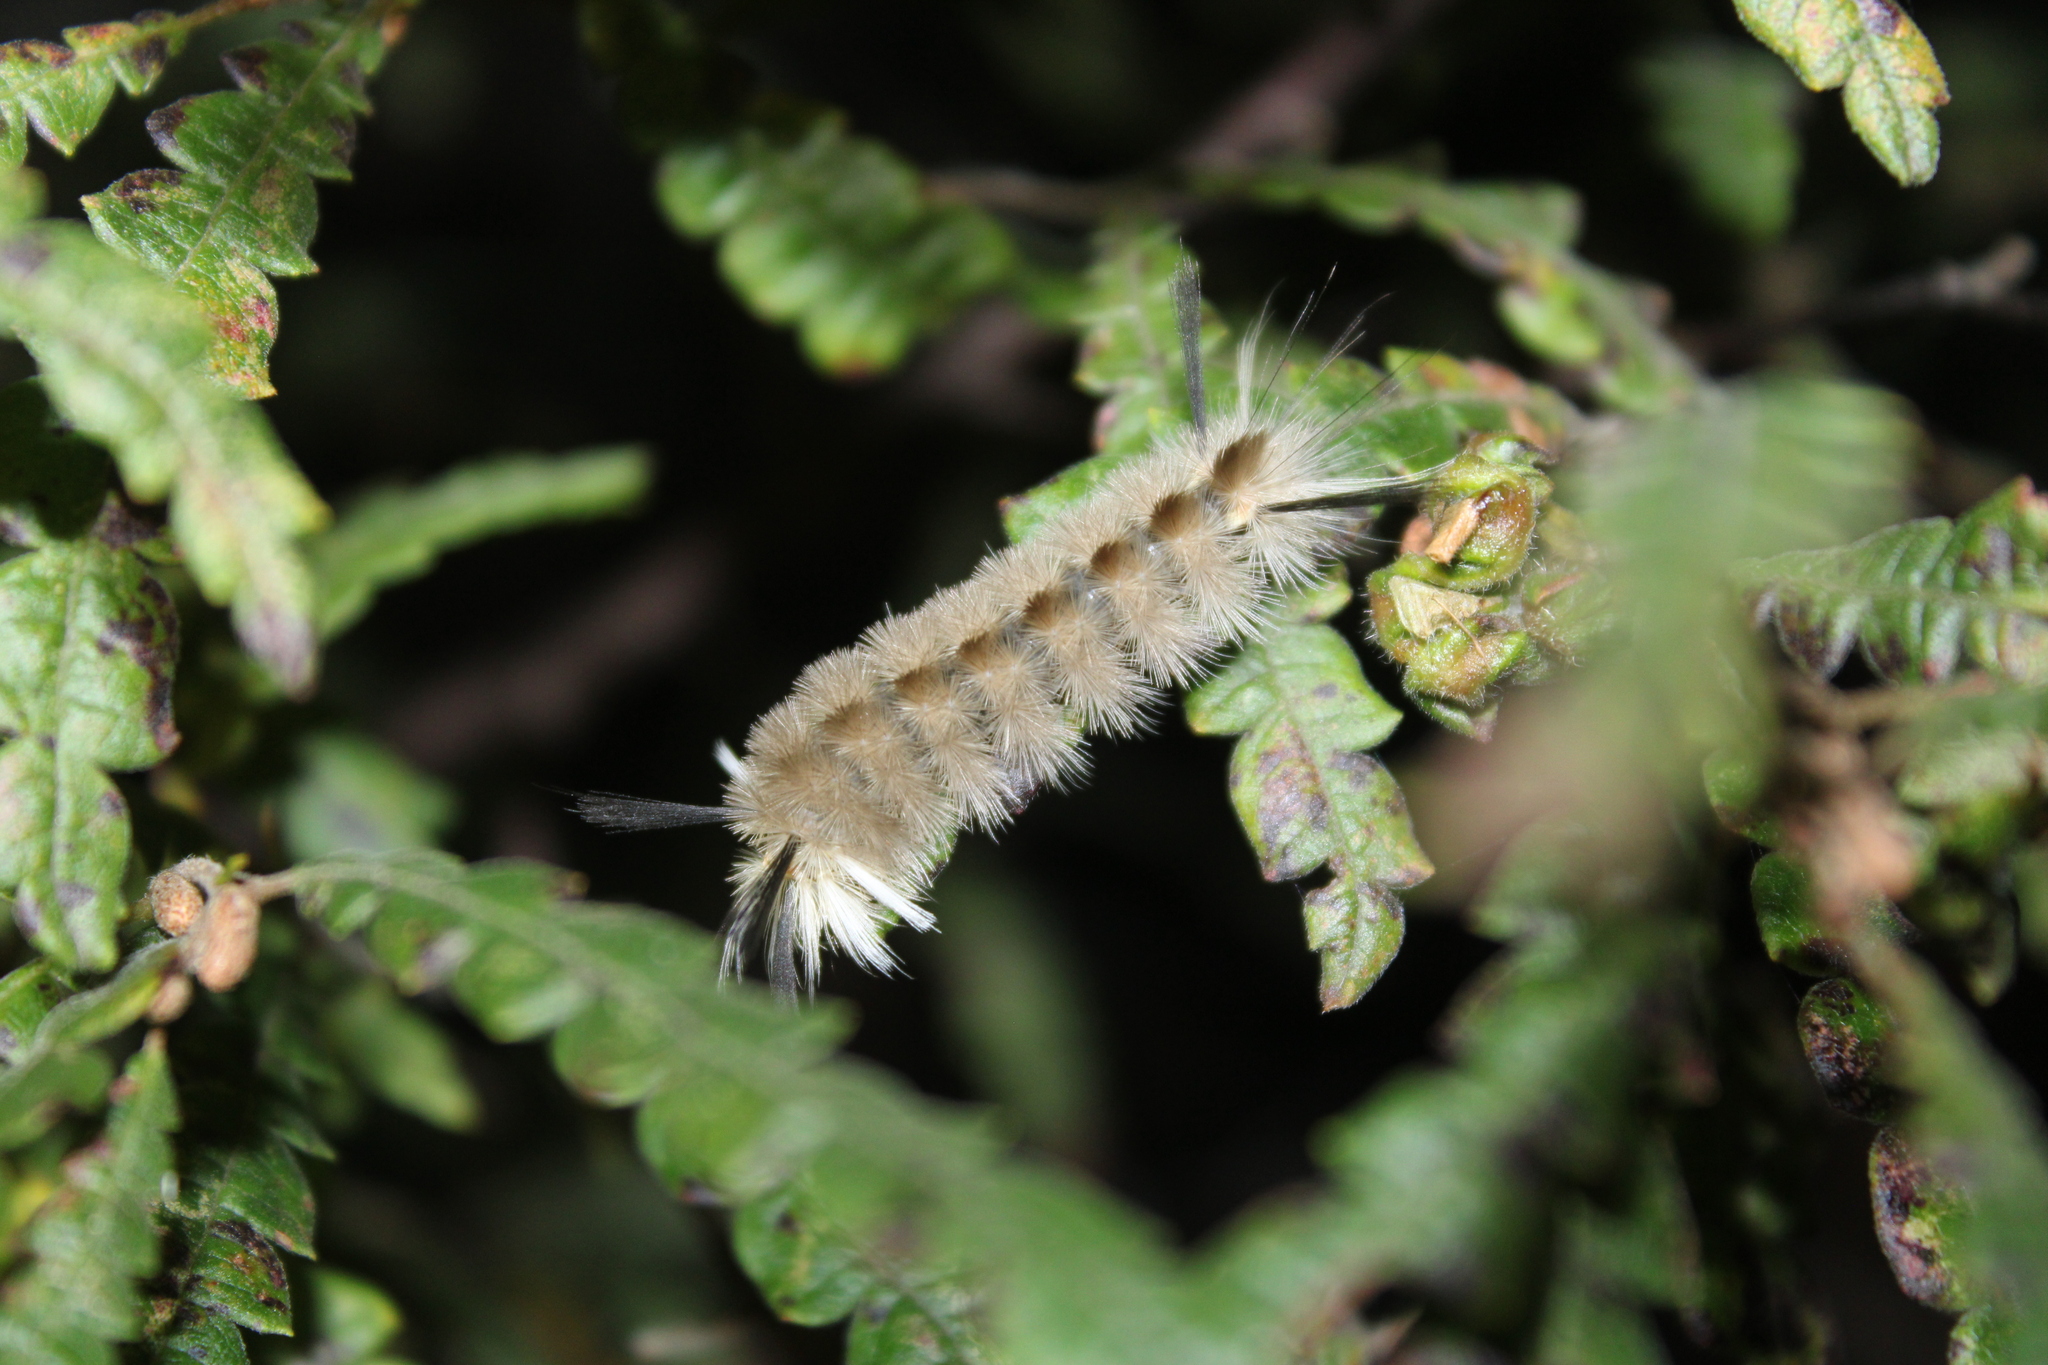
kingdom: Animalia
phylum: Arthropoda
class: Insecta
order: Lepidoptera
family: Erebidae
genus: Halysidota
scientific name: Halysidota tessellaris
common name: Banded tussock moth
